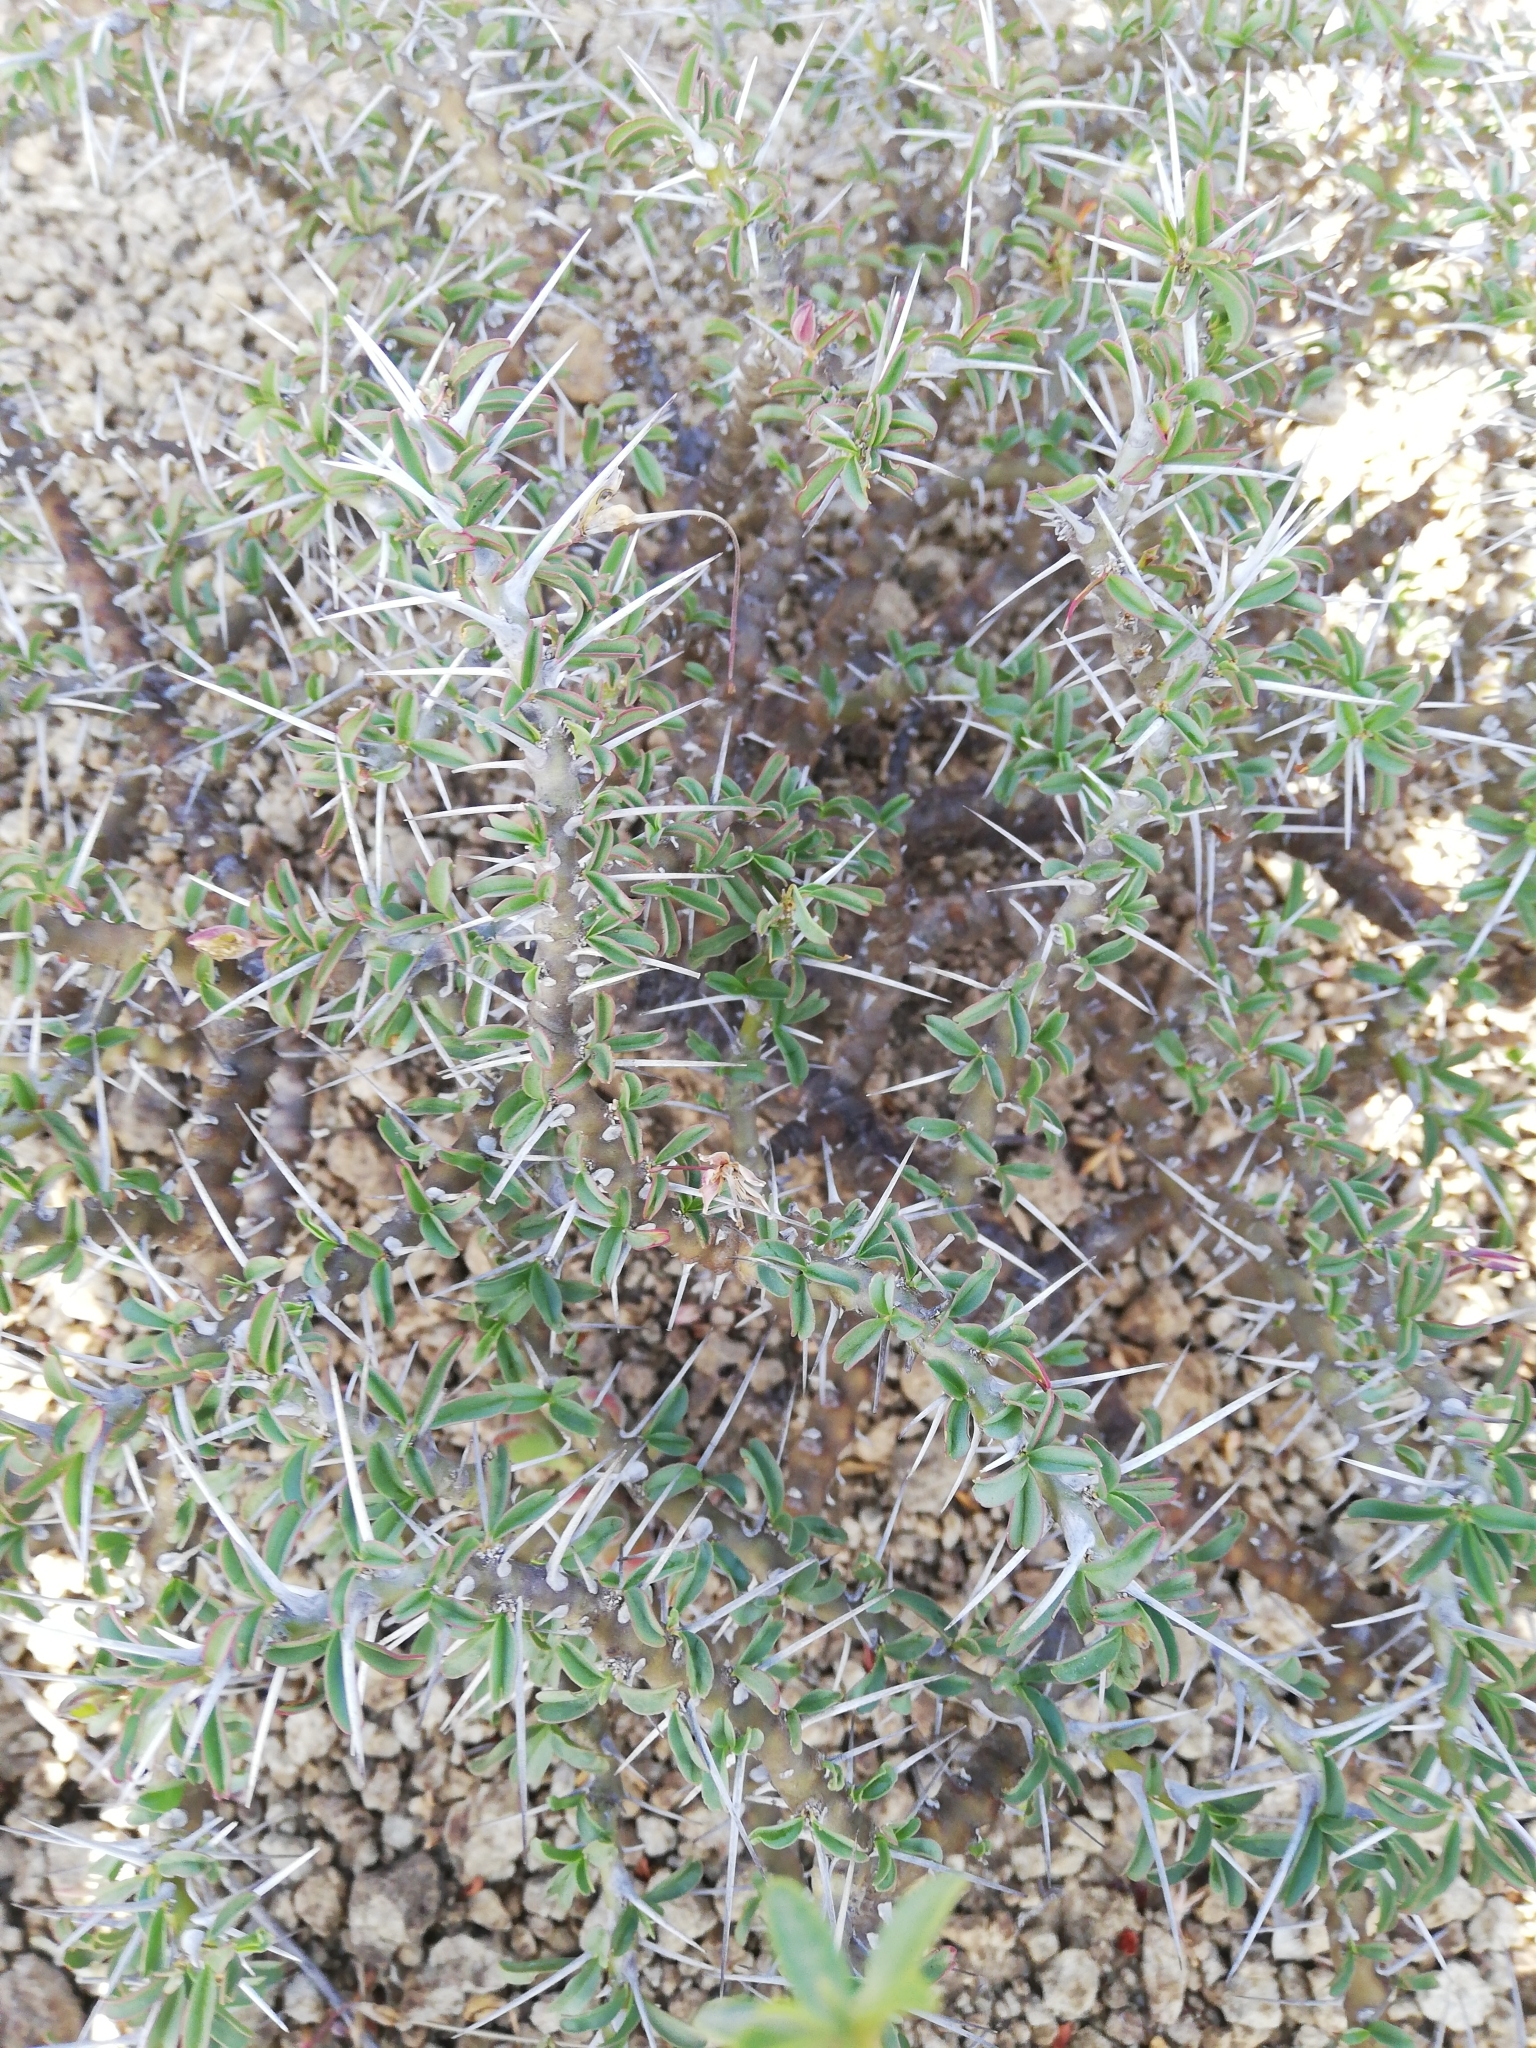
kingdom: Plantae
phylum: Tracheophyta
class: Magnoliopsida
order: Geraniales
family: Geraniaceae
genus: Monsonia
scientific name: Monsonia camdeboensis
